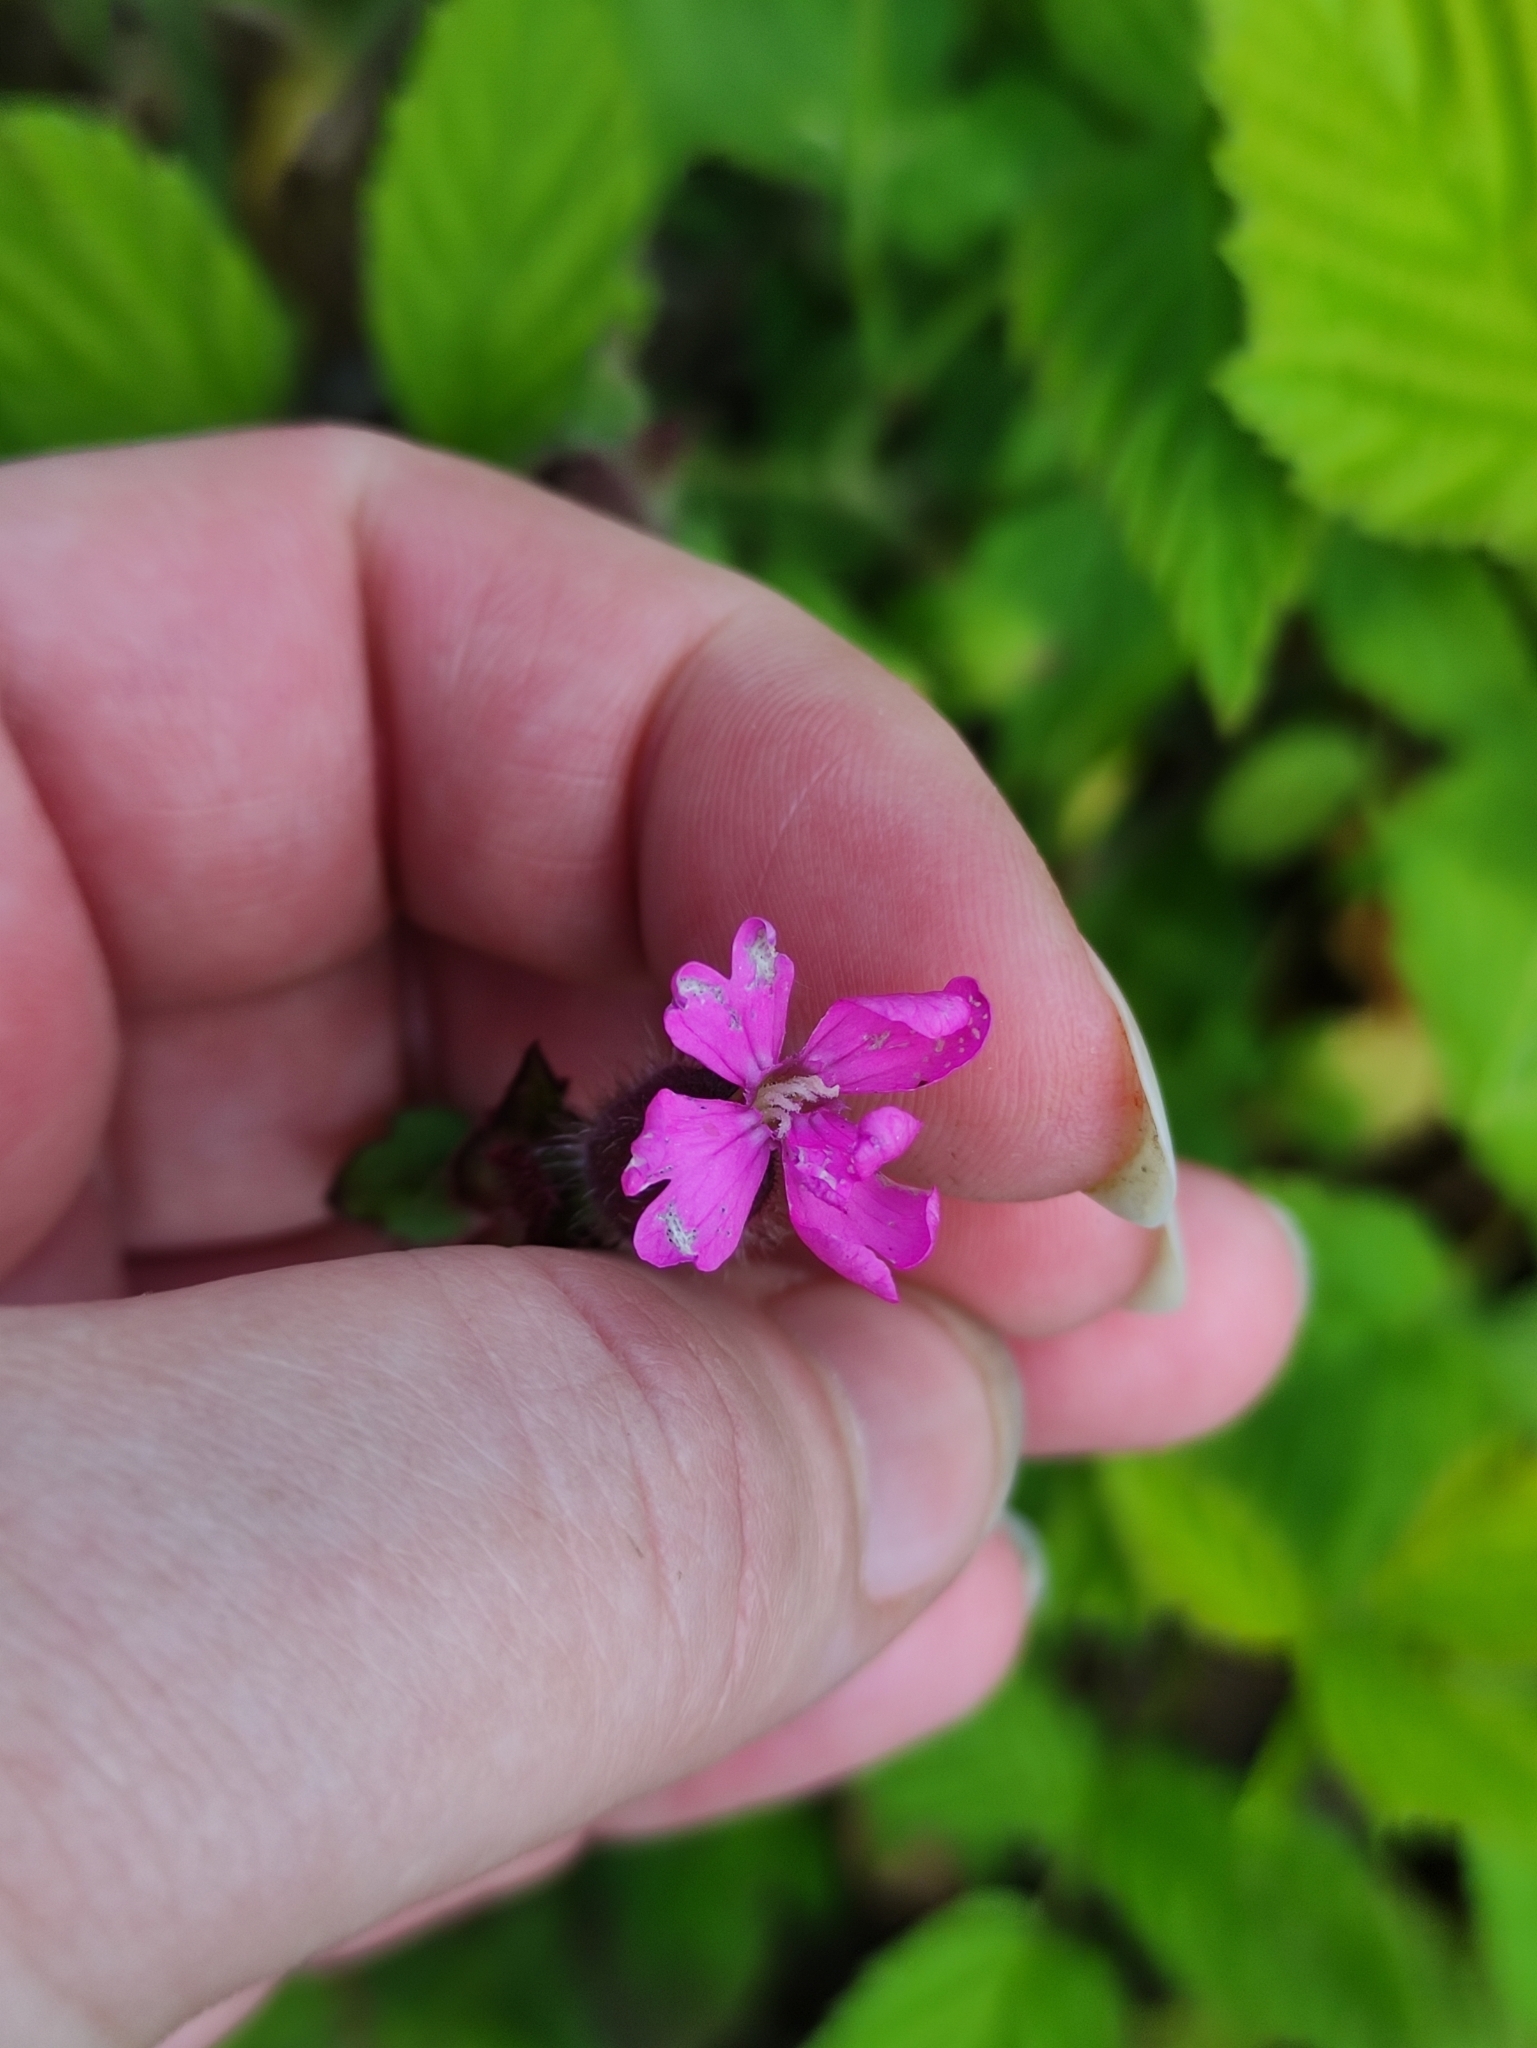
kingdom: Plantae
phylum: Tracheophyta
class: Magnoliopsida
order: Caryophyllales
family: Caryophyllaceae
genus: Silene
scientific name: Silene dioica
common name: Red campion
